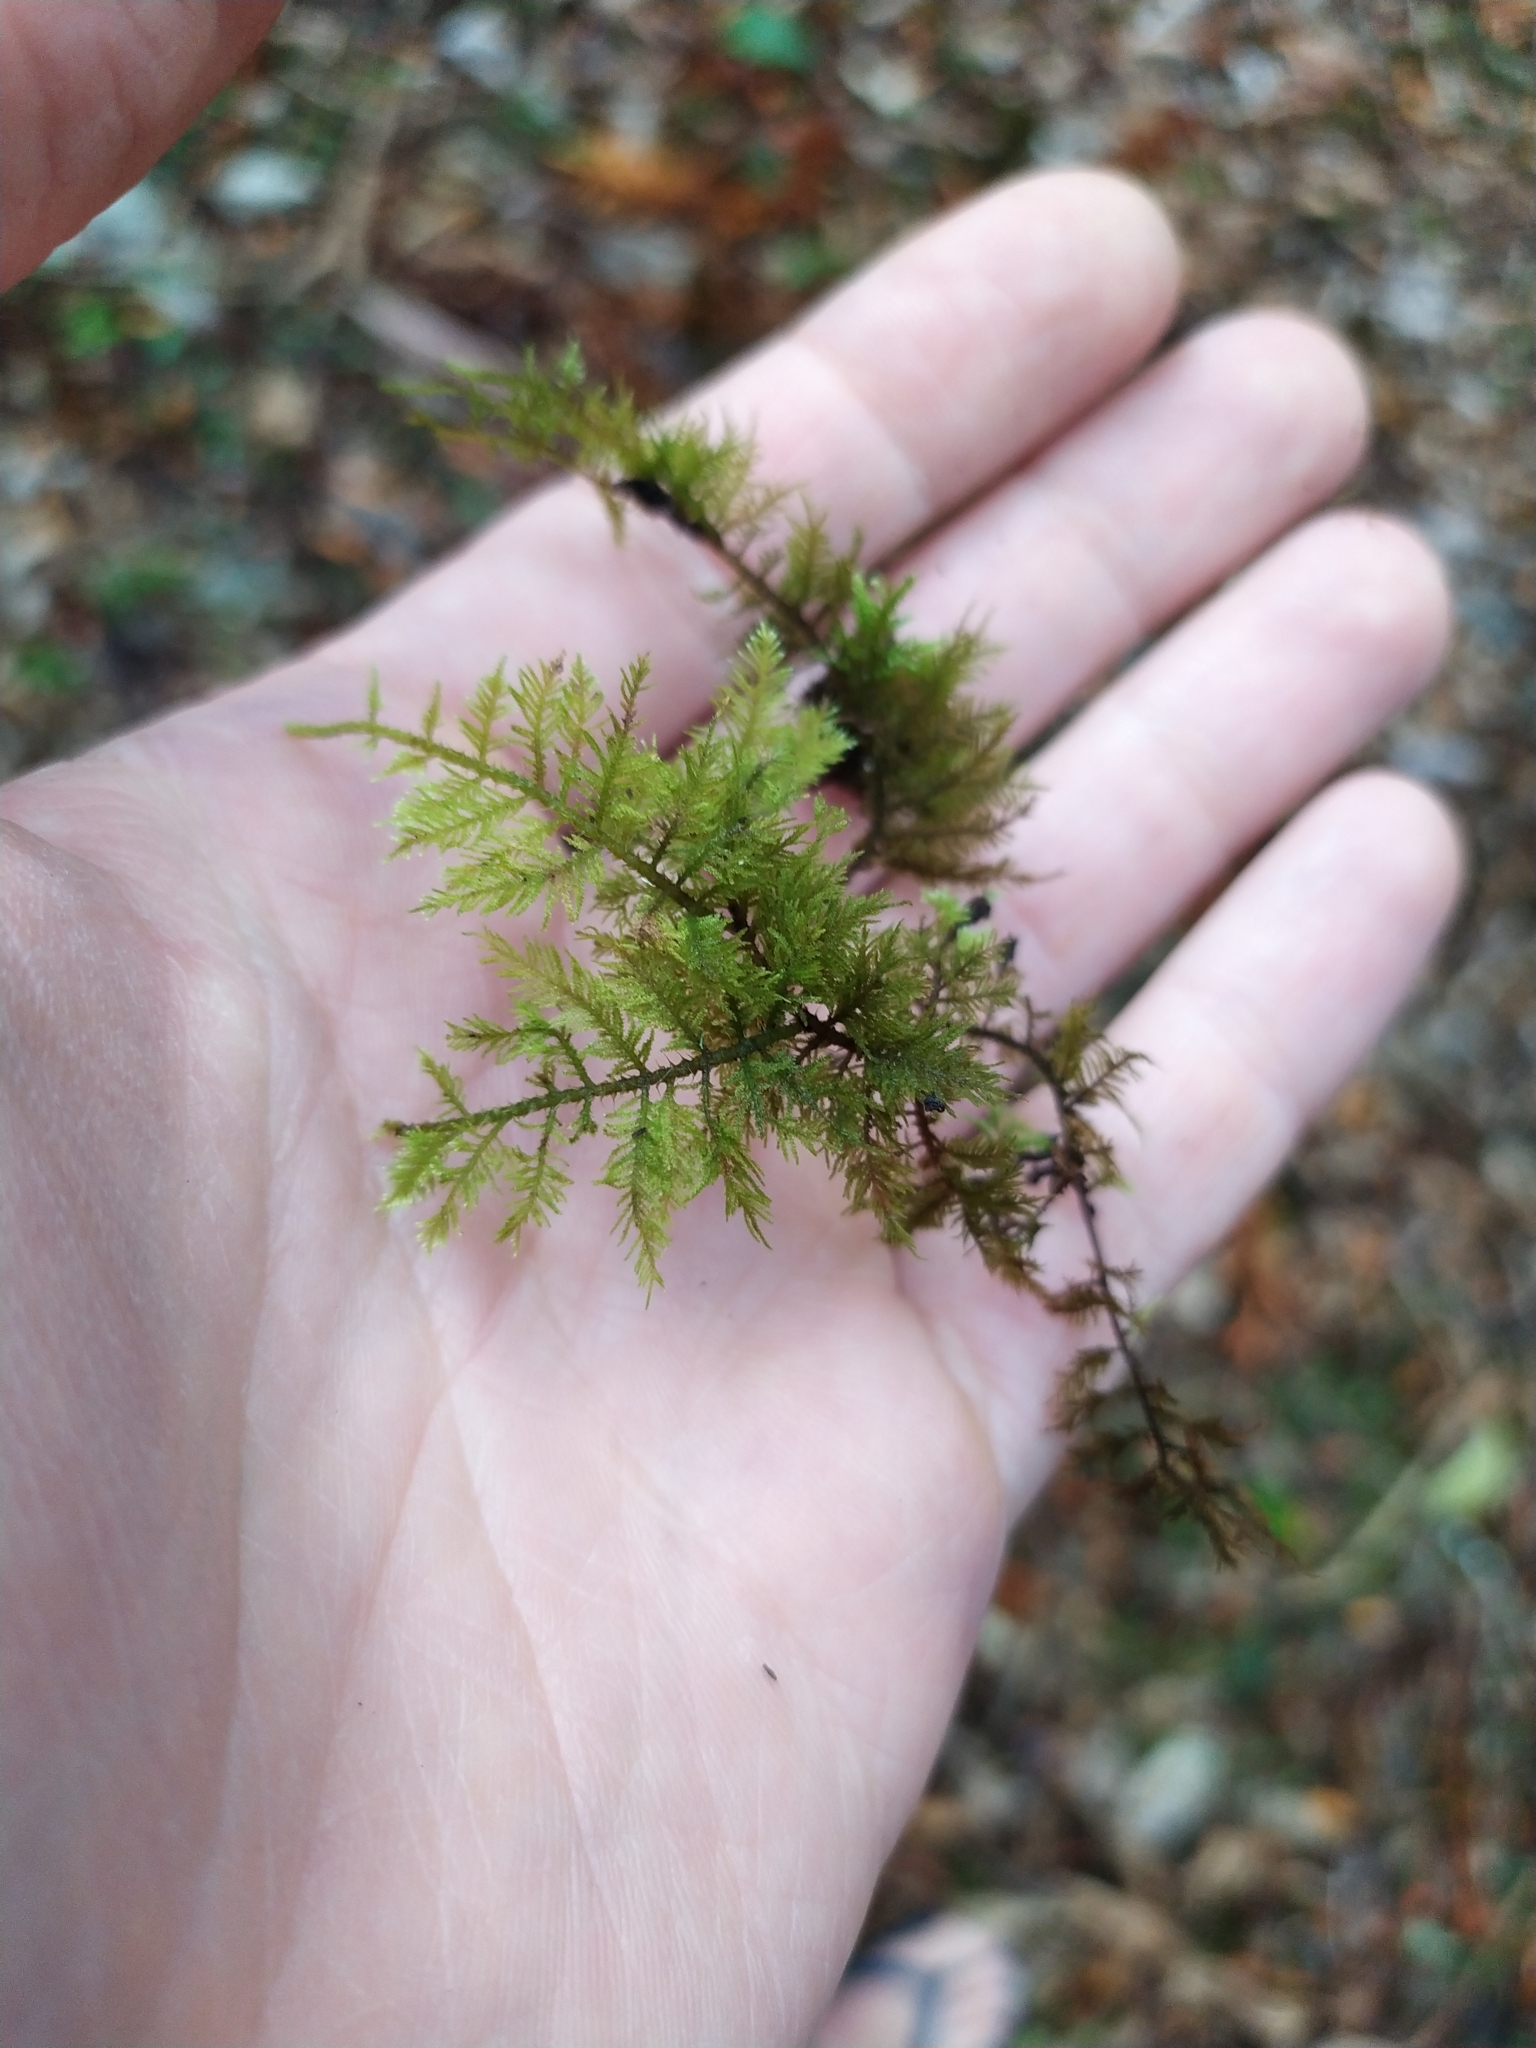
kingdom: Plantae
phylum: Bryophyta
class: Bryopsida
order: Hypnales
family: Thuidiaceae
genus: Thuidiopsis
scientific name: Thuidiopsis furfurosa
